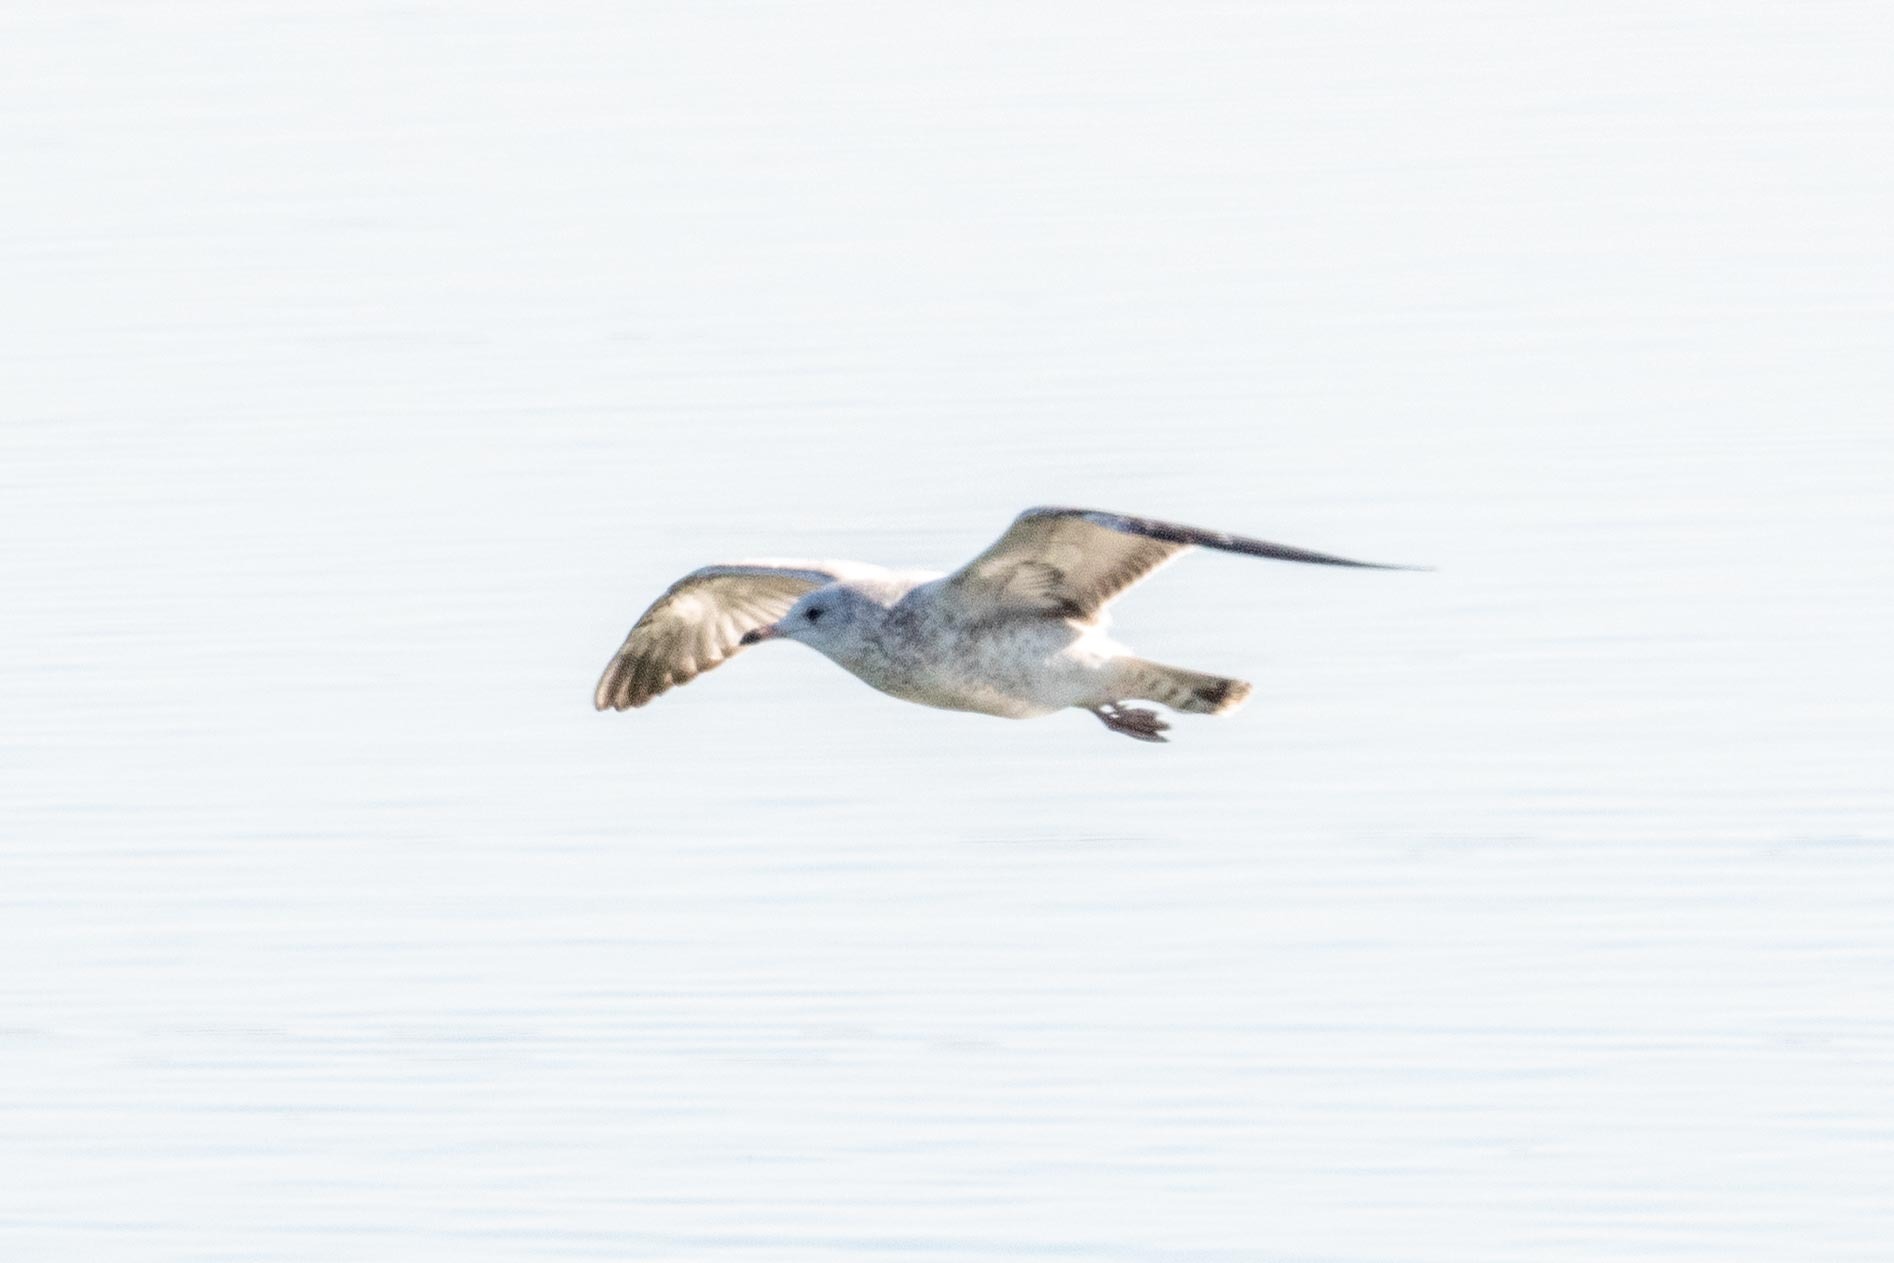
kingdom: Animalia
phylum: Chordata
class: Aves
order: Charadriiformes
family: Laridae
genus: Larus
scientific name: Larus delawarensis
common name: Ring-billed gull
